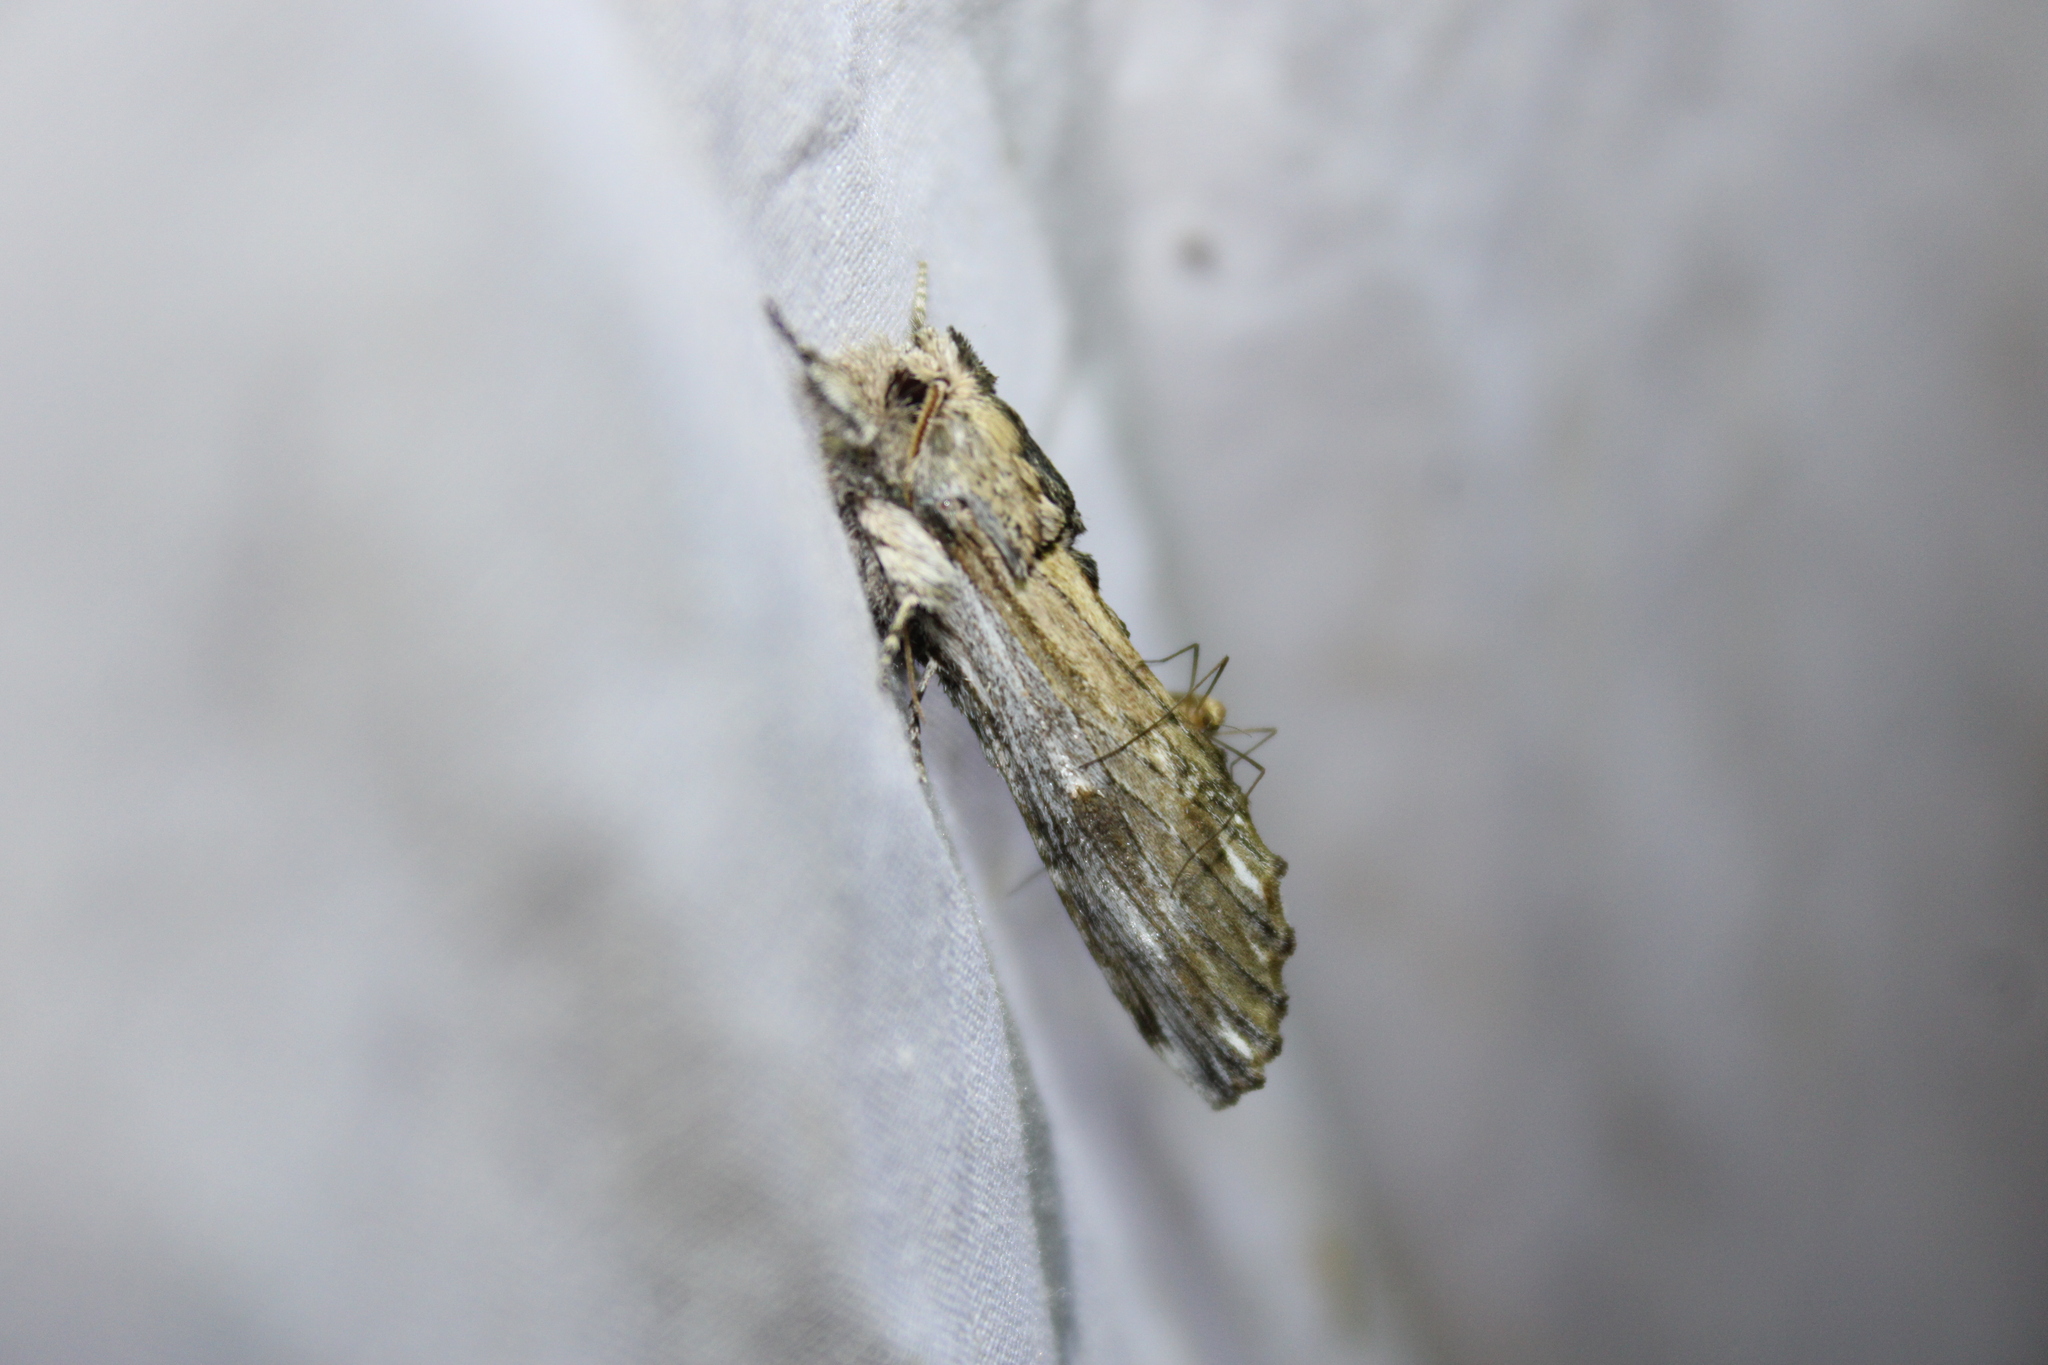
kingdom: Animalia
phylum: Arthropoda
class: Insecta
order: Lepidoptera
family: Notodontidae
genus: Oligocentria
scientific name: Oligocentria Ianassa lignicolor
